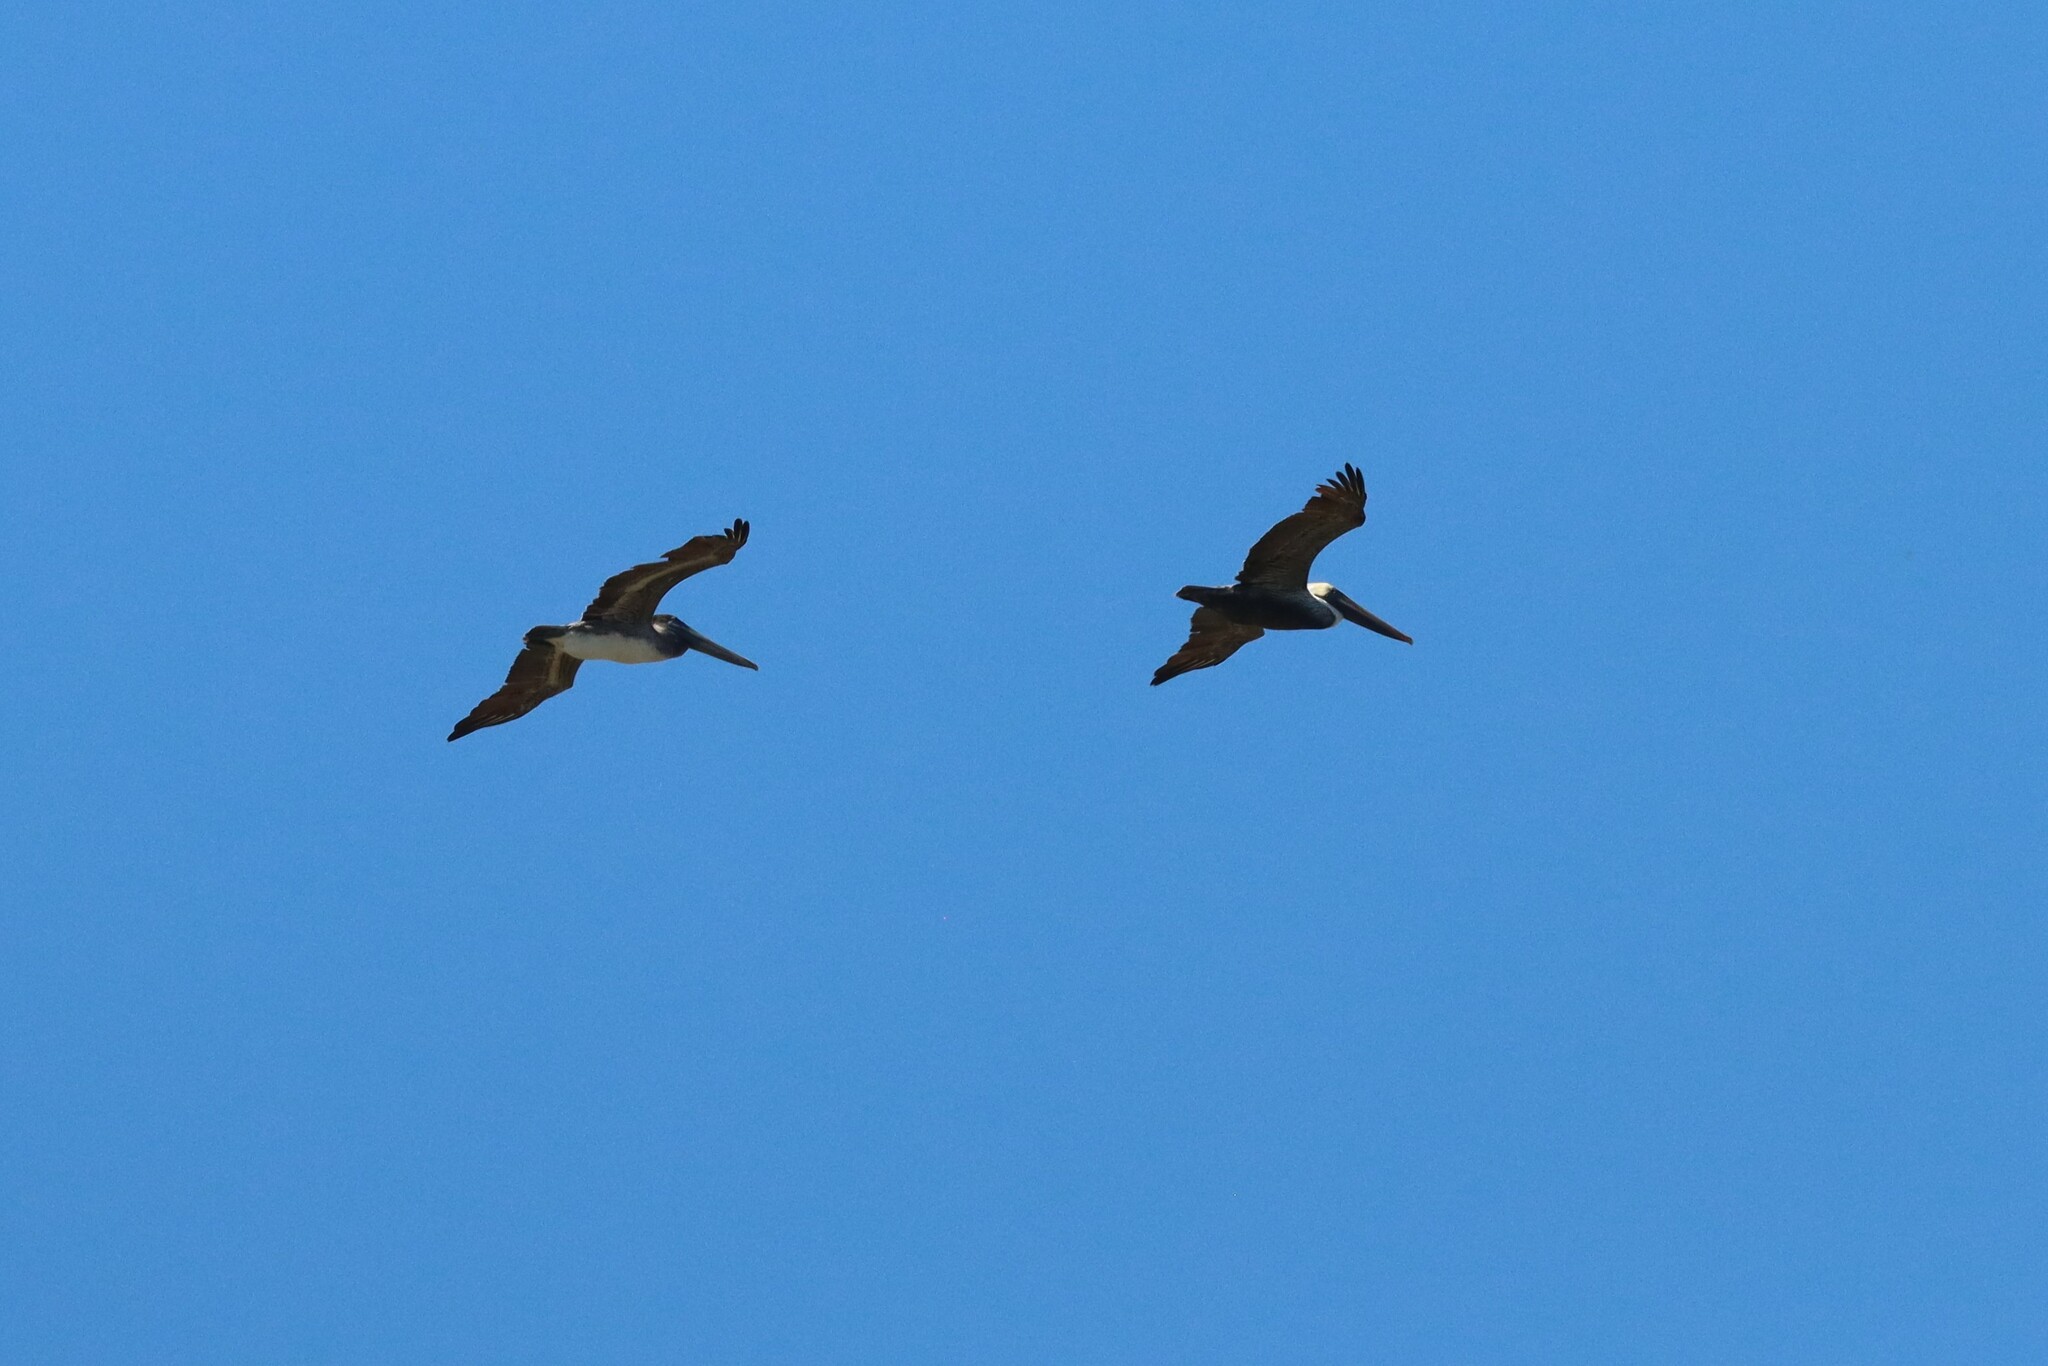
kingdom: Animalia
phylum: Chordata
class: Aves
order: Pelecaniformes
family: Pelecanidae
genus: Pelecanus
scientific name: Pelecanus occidentalis
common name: Brown pelican
